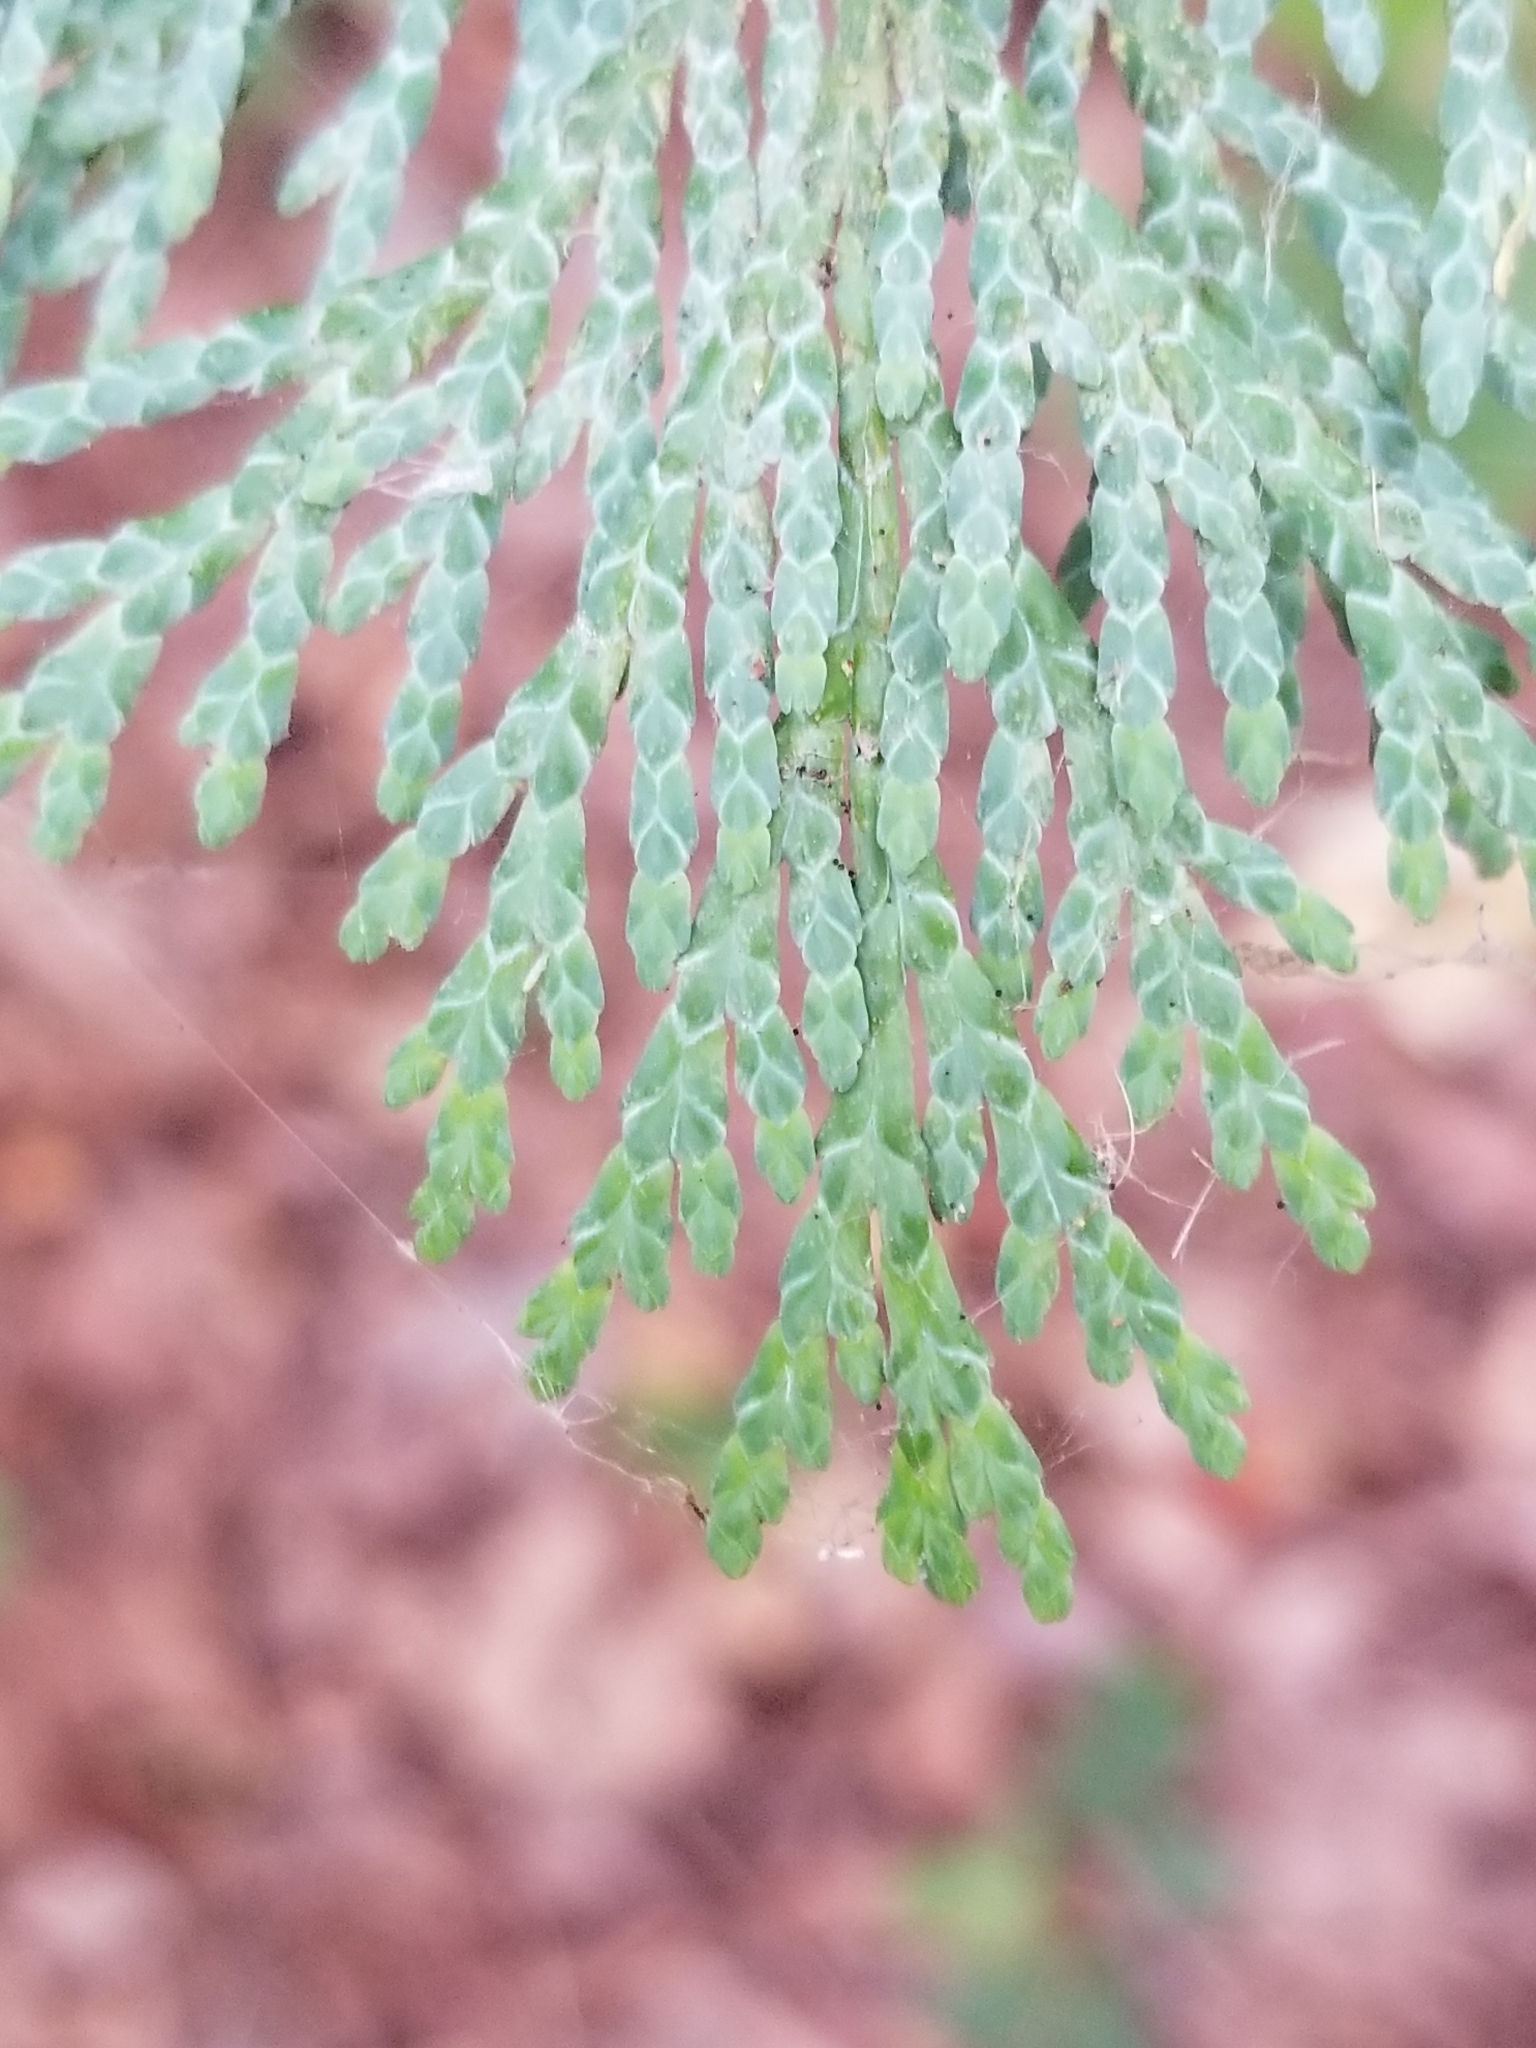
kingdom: Plantae
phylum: Tracheophyta
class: Pinopsida
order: Pinales
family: Cupressaceae
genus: Thuja
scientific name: Thuja plicata
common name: Western red-cedar
